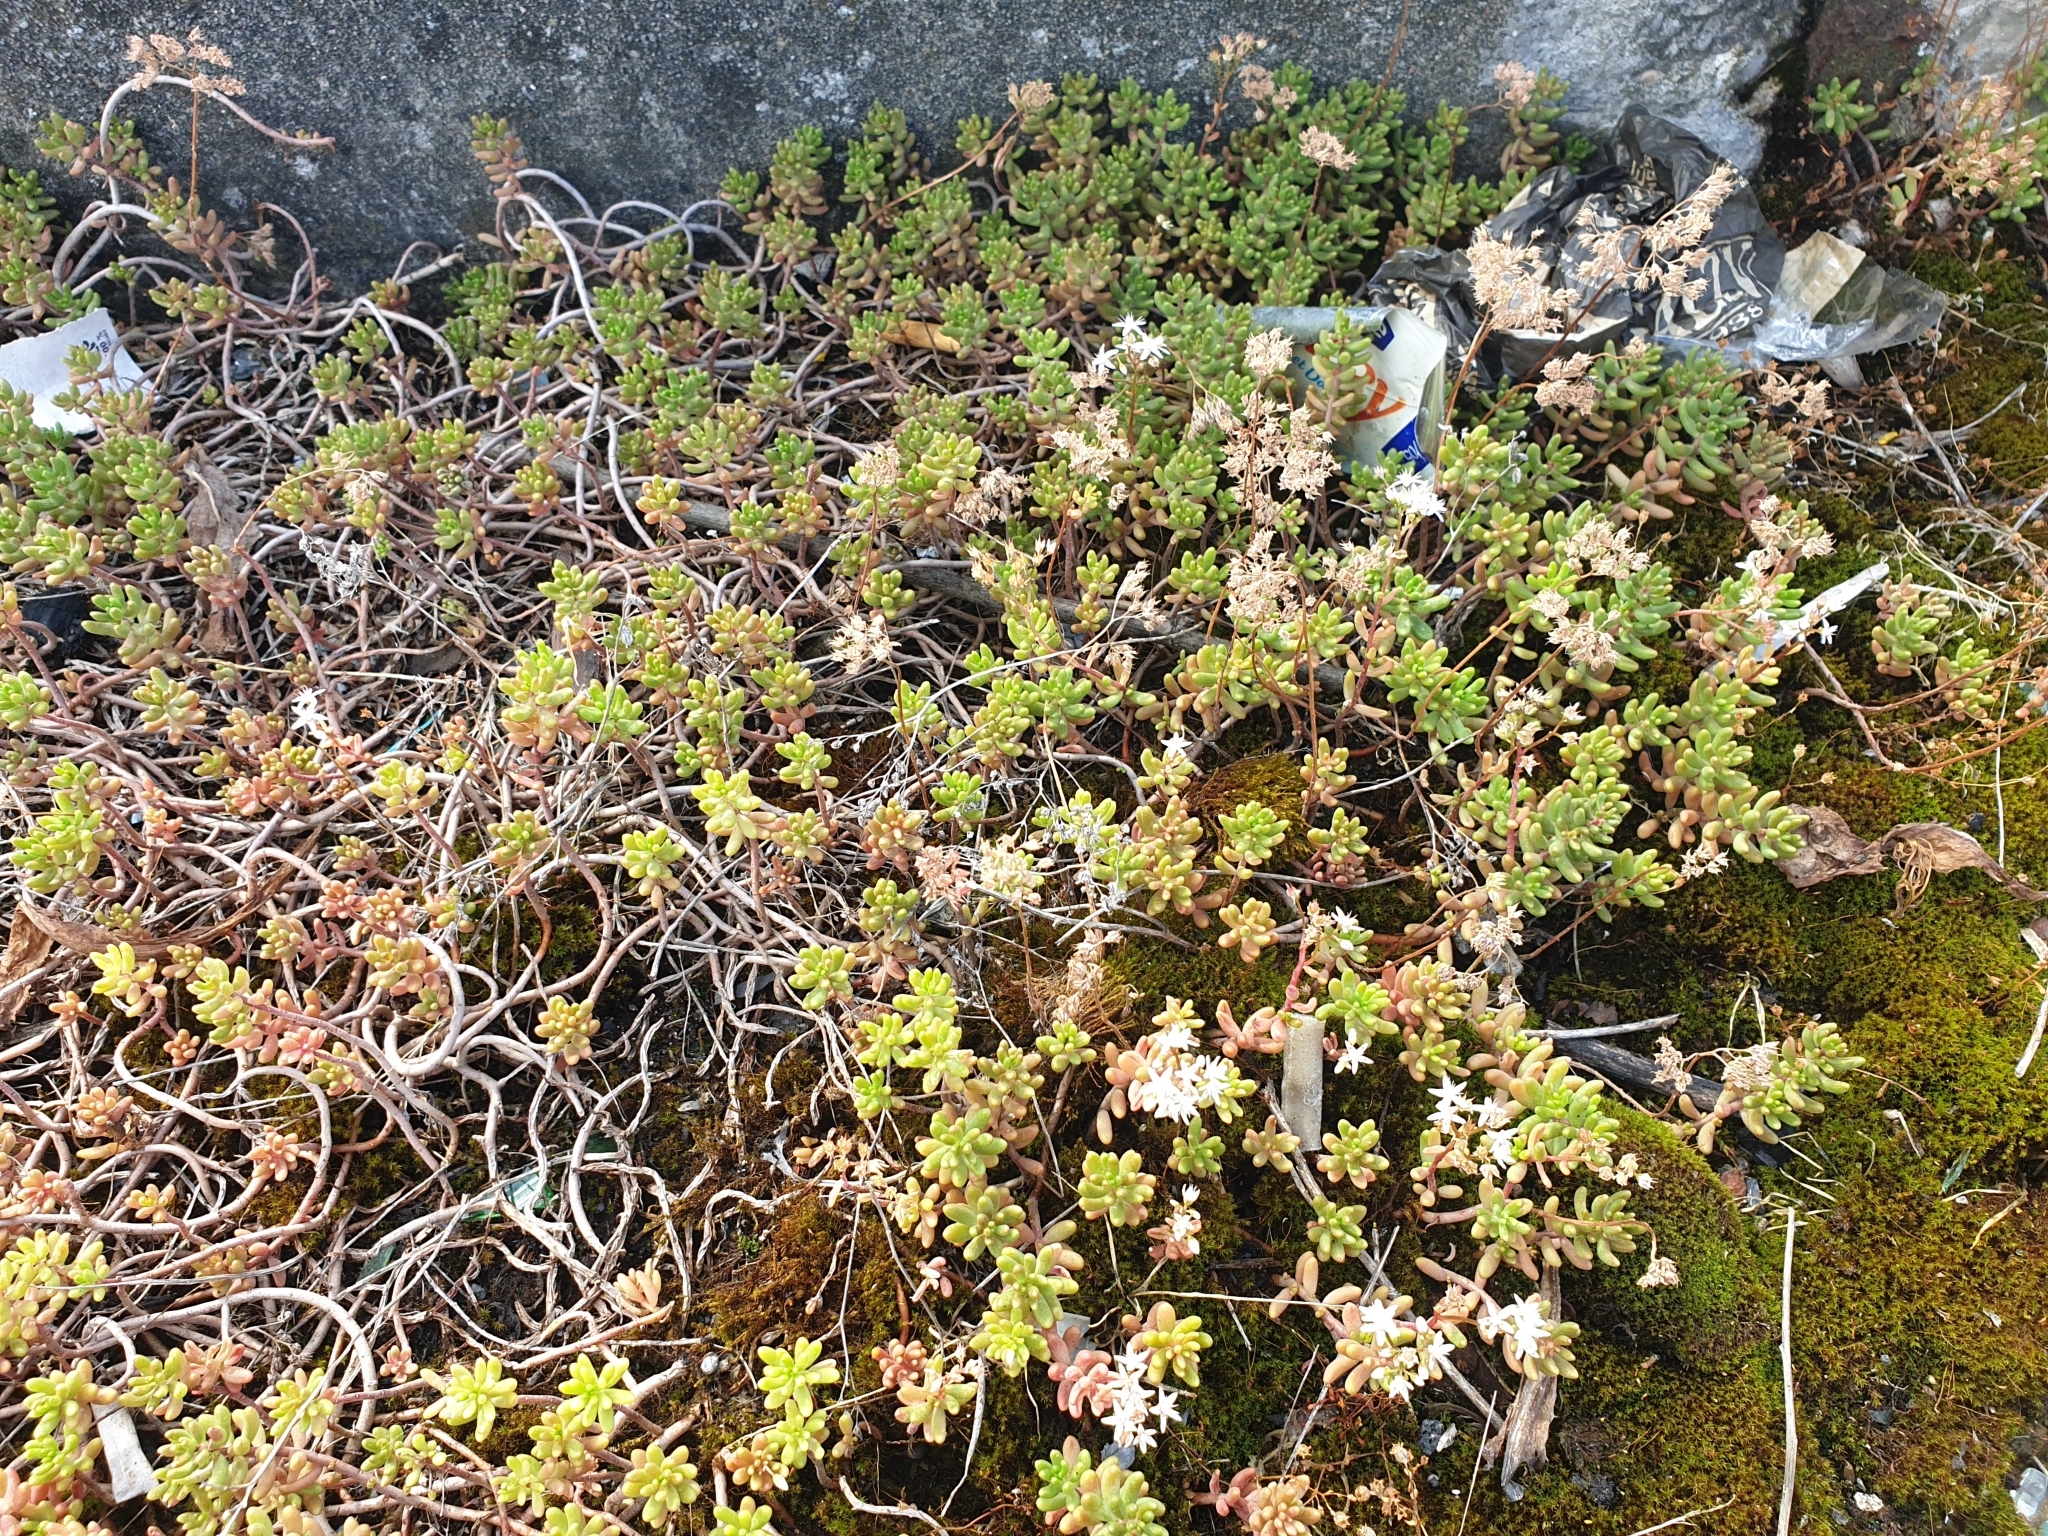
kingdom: Plantae
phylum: Tracheophyta
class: Magnoliopsida
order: Saxifragales
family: Crassulaceae
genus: Sedum
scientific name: Sedum album
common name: White stonecrop
